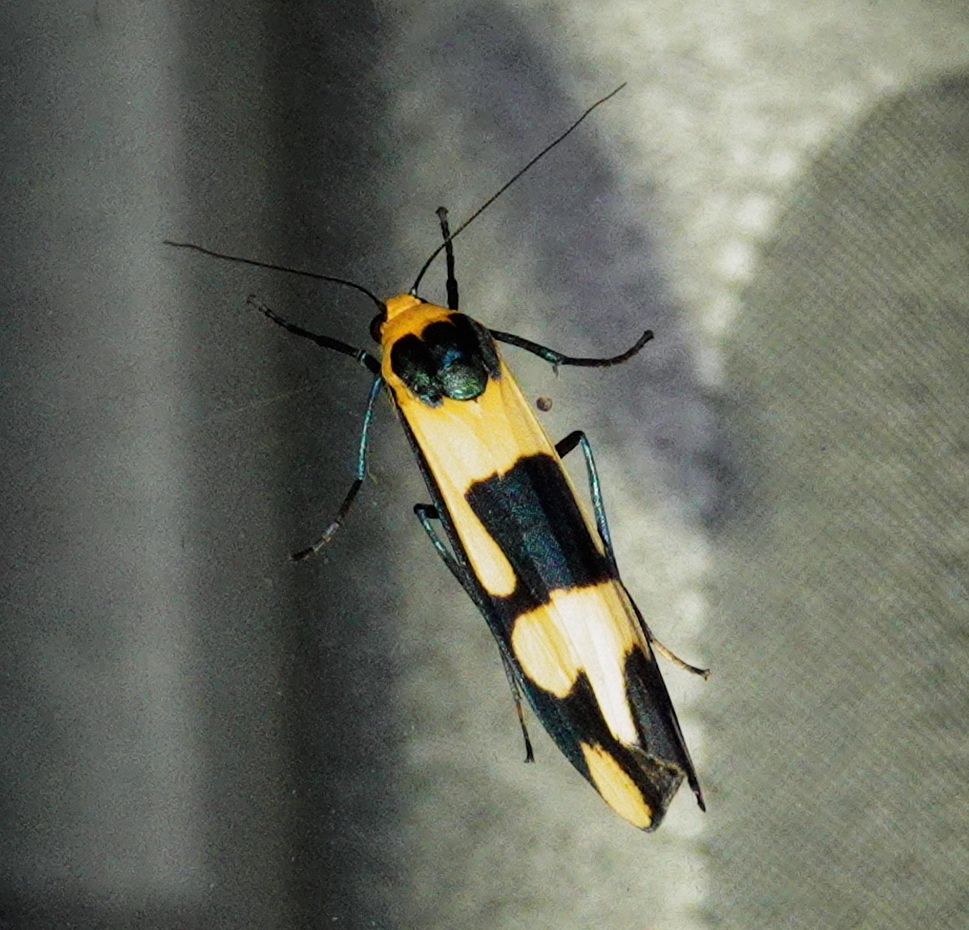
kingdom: Animalia
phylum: Arthropoda
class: Insecta
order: Lepidoptera
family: Erebidae
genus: Oeonistis
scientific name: Oeonistis entella
